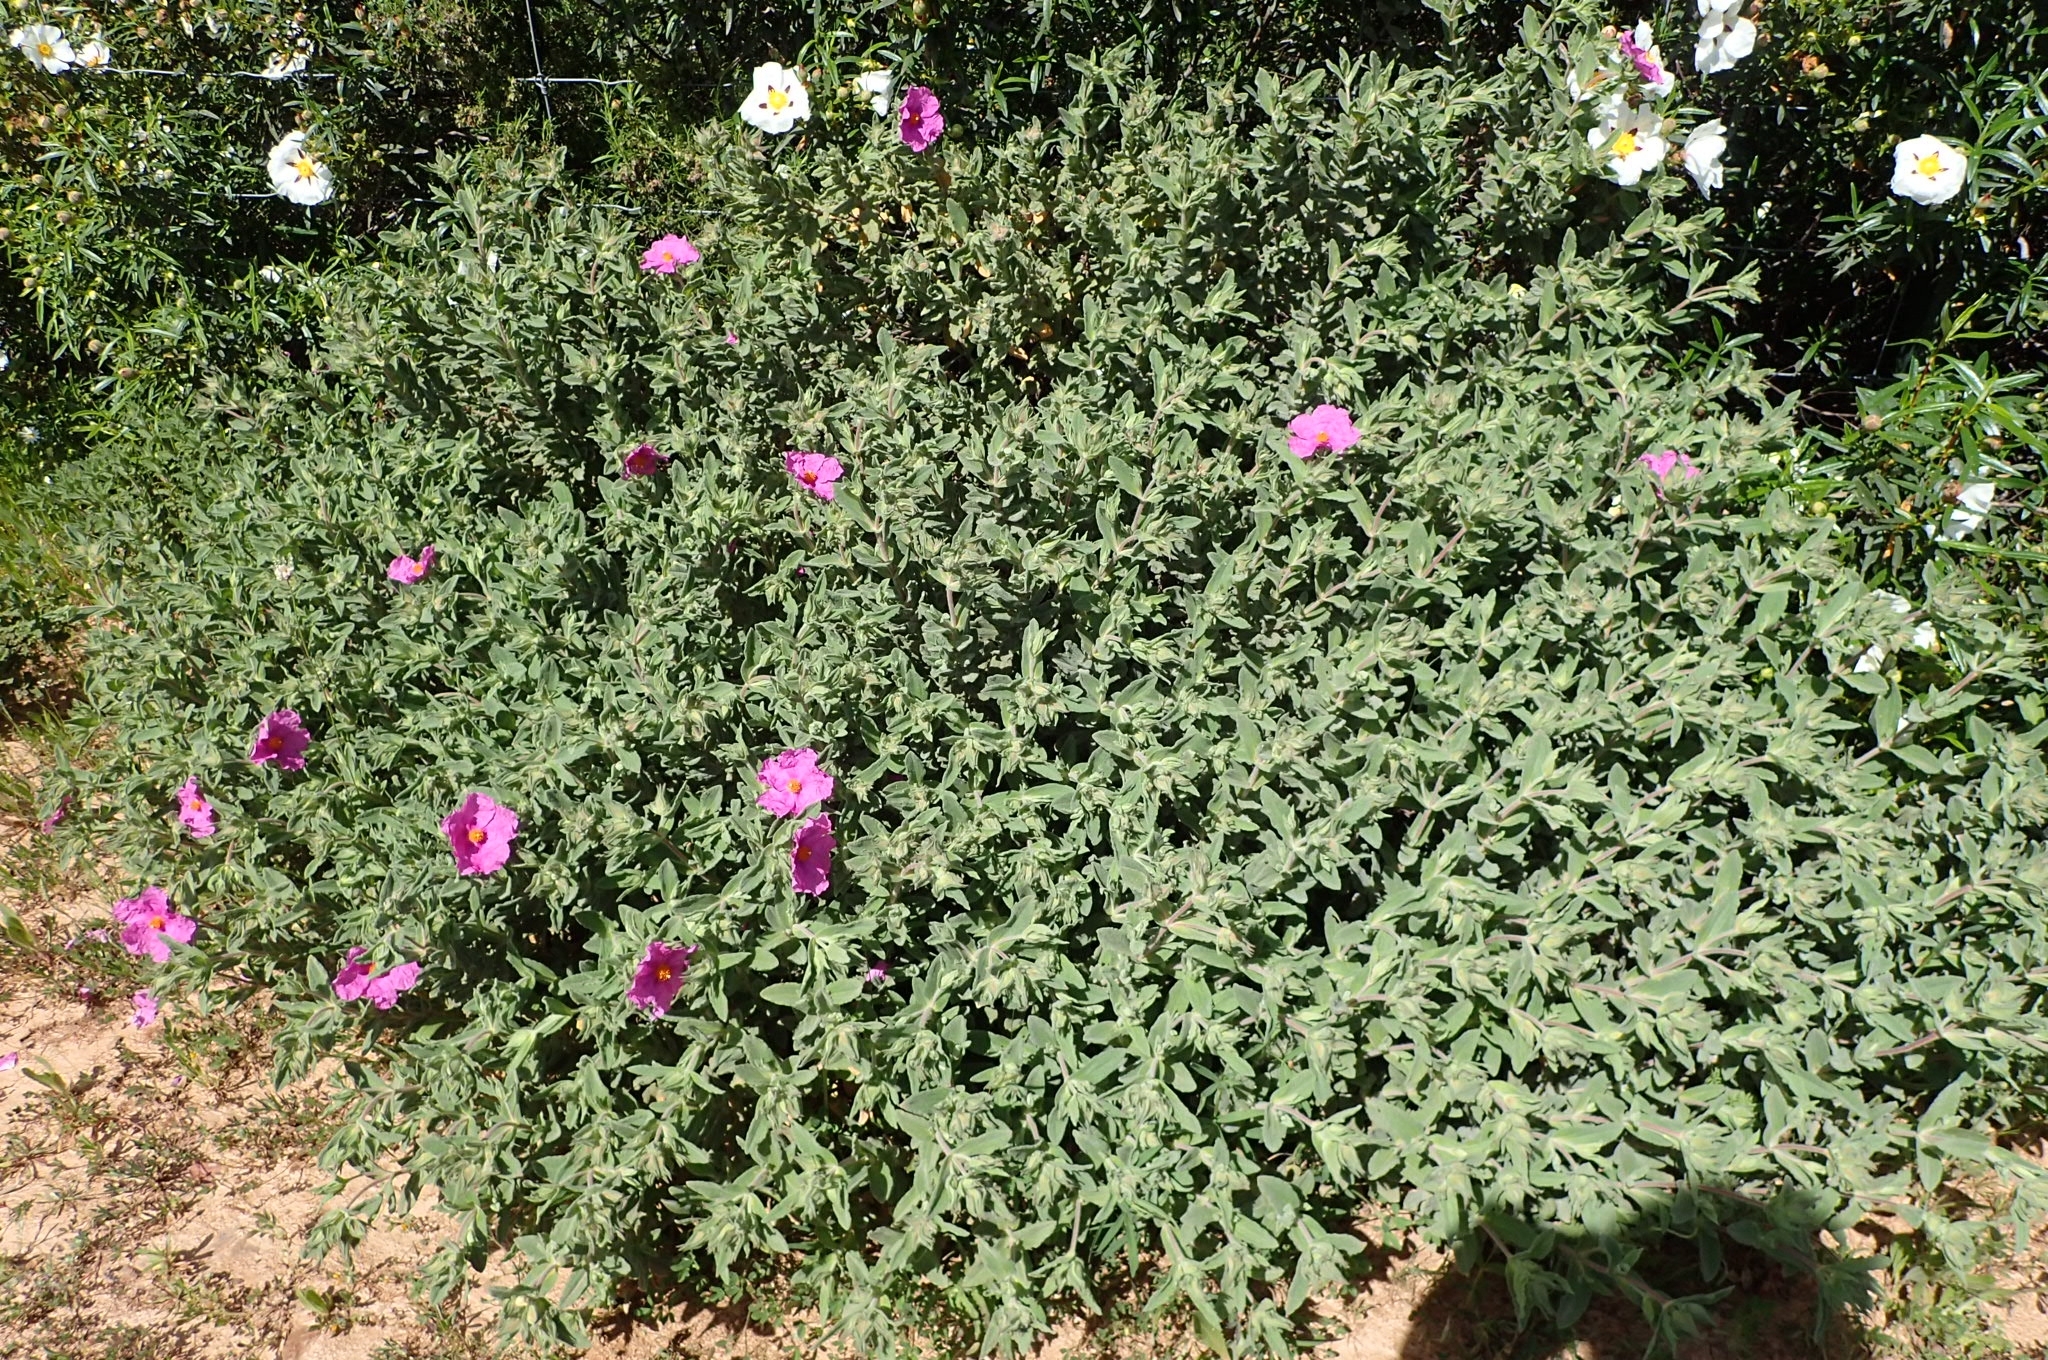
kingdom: Plantae
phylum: Tracheophyta
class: Magnoliopsida
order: Malvales
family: Cistaceae
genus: Cistus
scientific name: Cistus crispus
